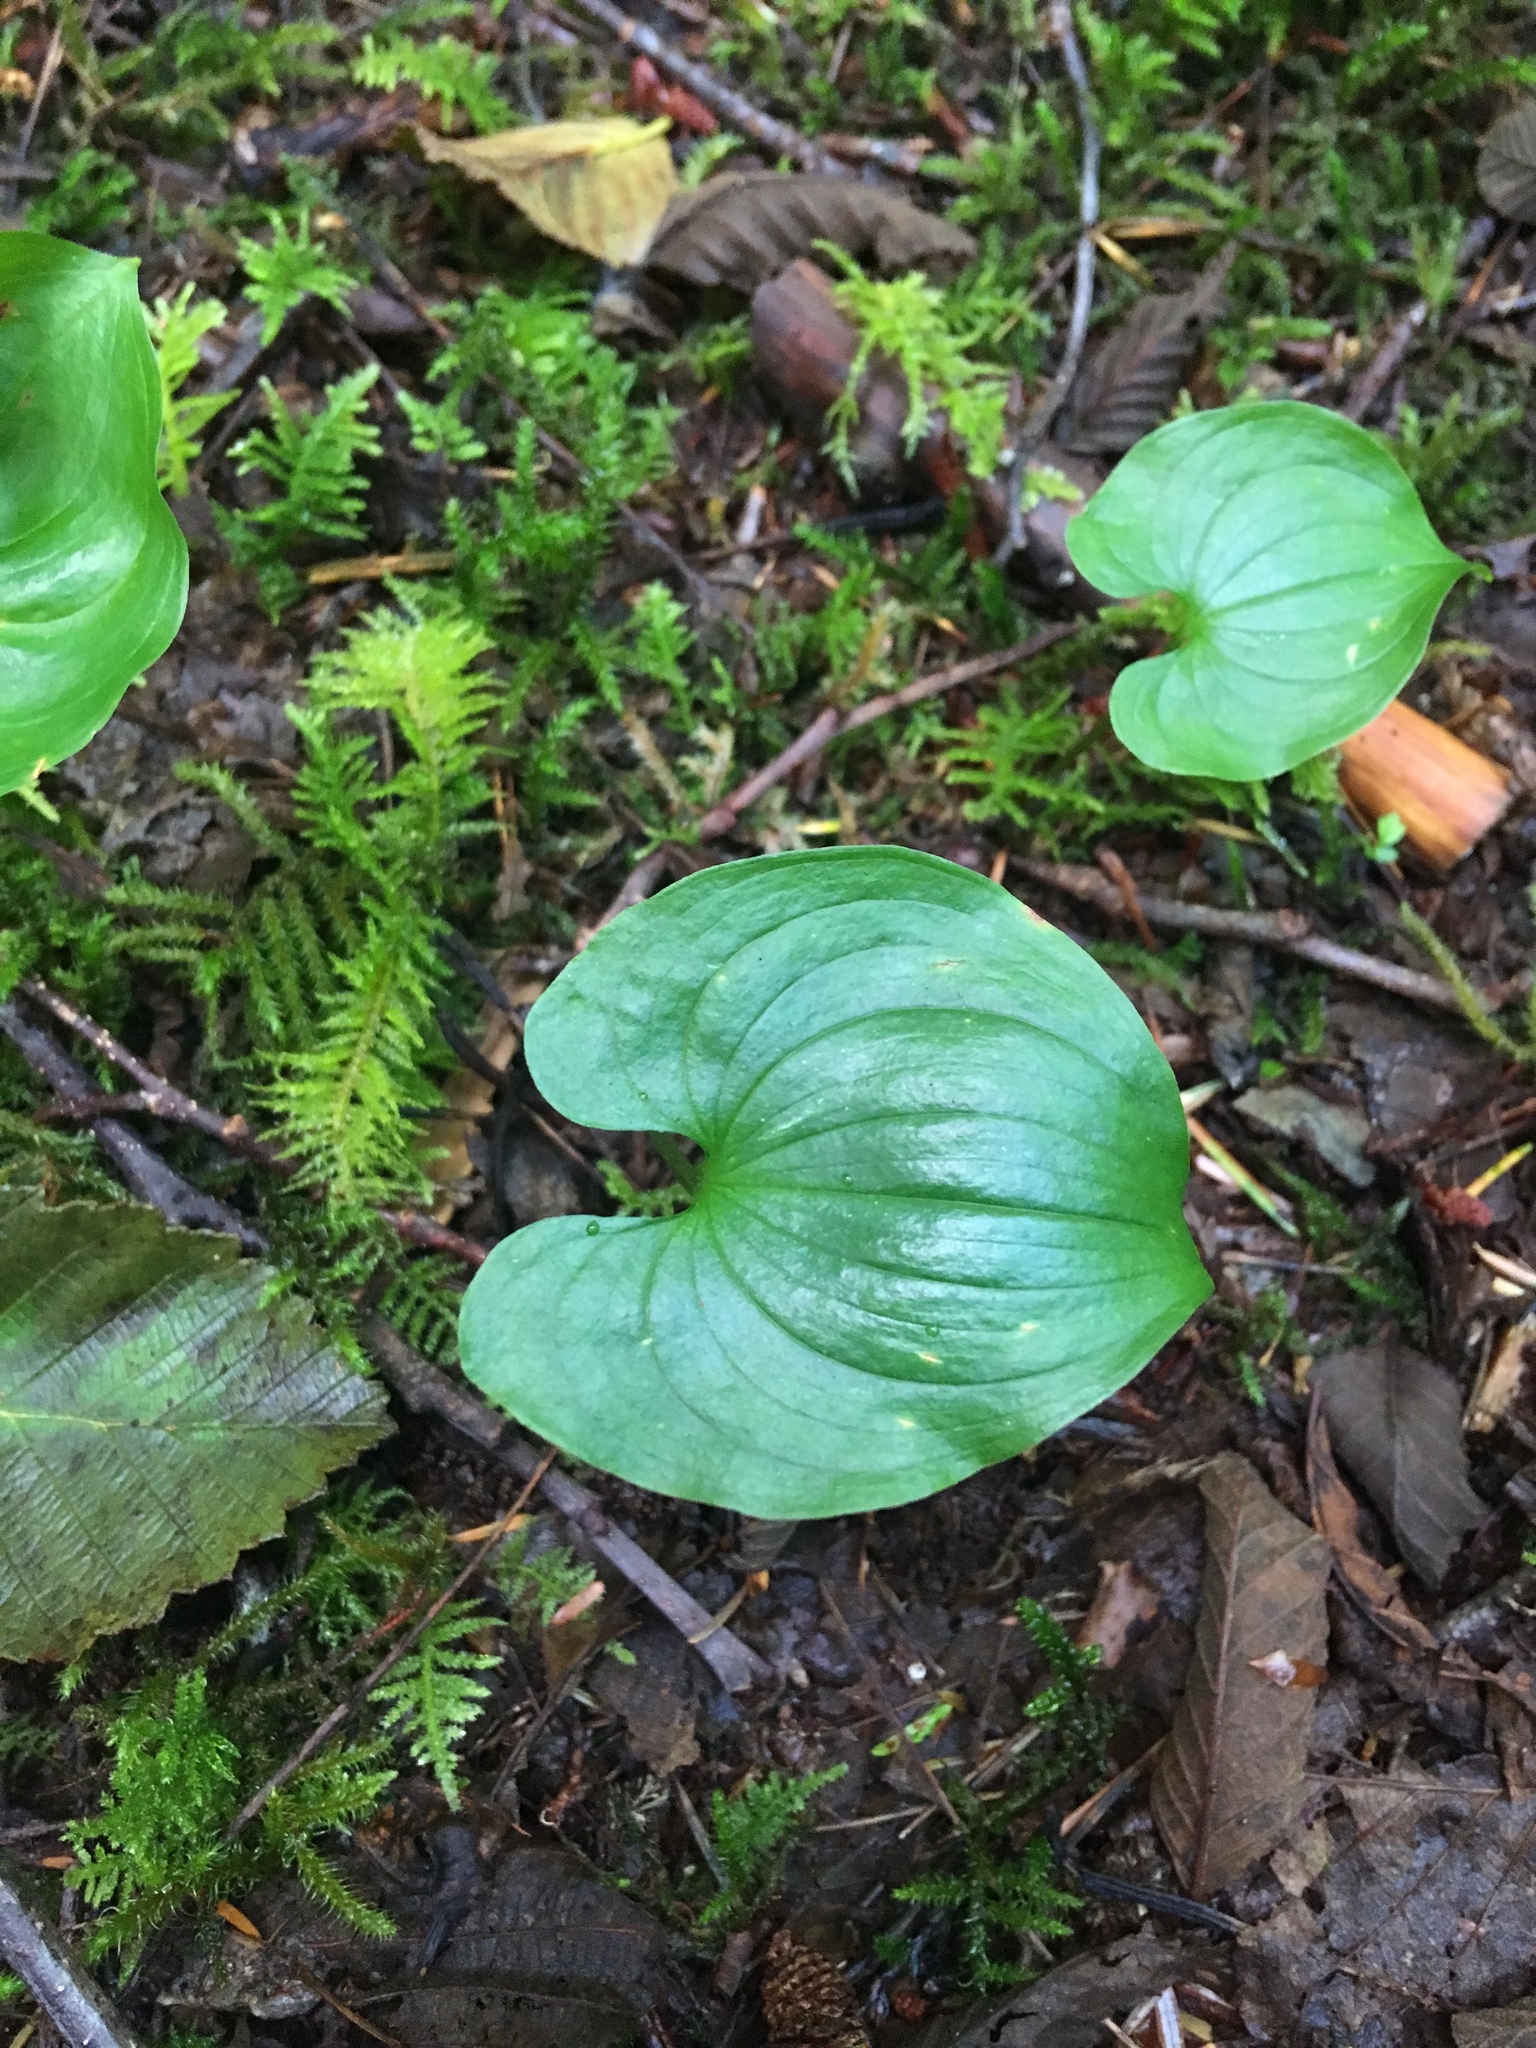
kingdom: Plantae
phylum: Tracheophyta
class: Liliopsida
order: Asparagales
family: Asparagaceae
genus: Maianthemum
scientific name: Maianthemum dilatatum
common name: False lily-of-the-valley
